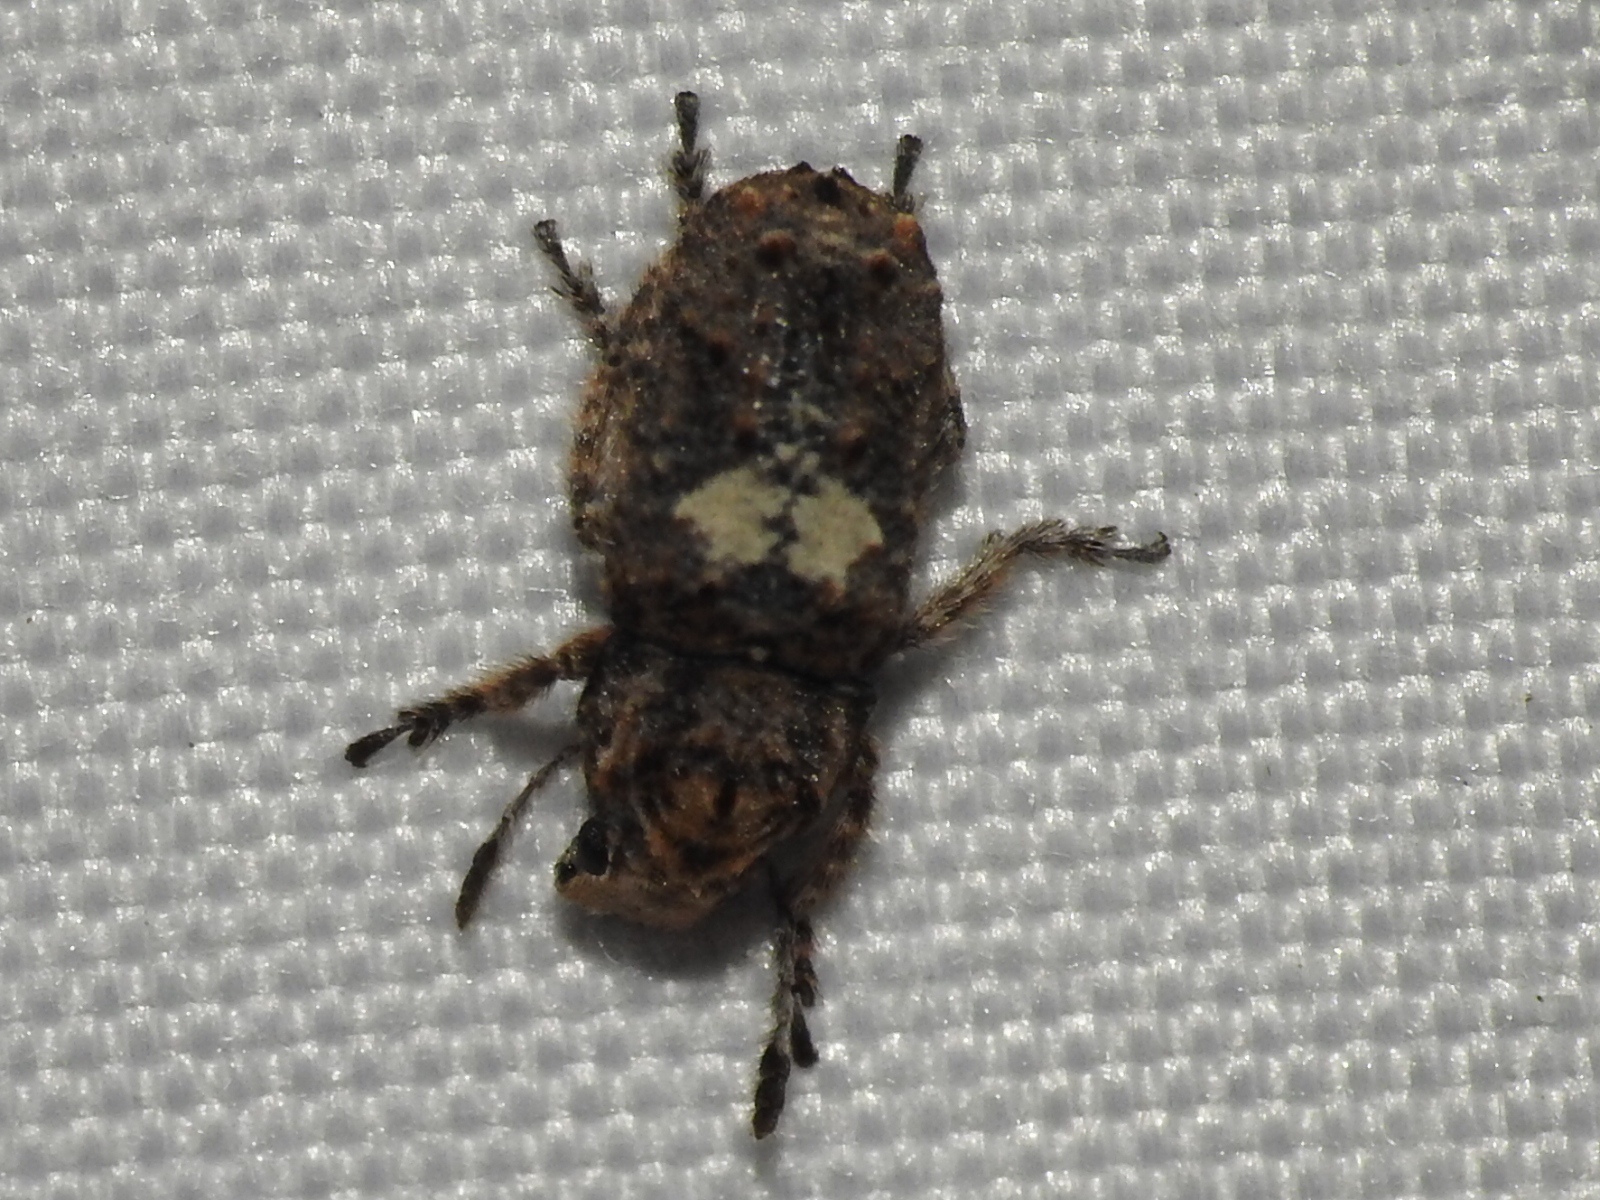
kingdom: Animalia
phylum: Arthropoda
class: Insecta
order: Coleoptera
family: Anthribidae
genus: Toxonotus
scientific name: Toxonotus cornutus
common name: Fungus weevil
